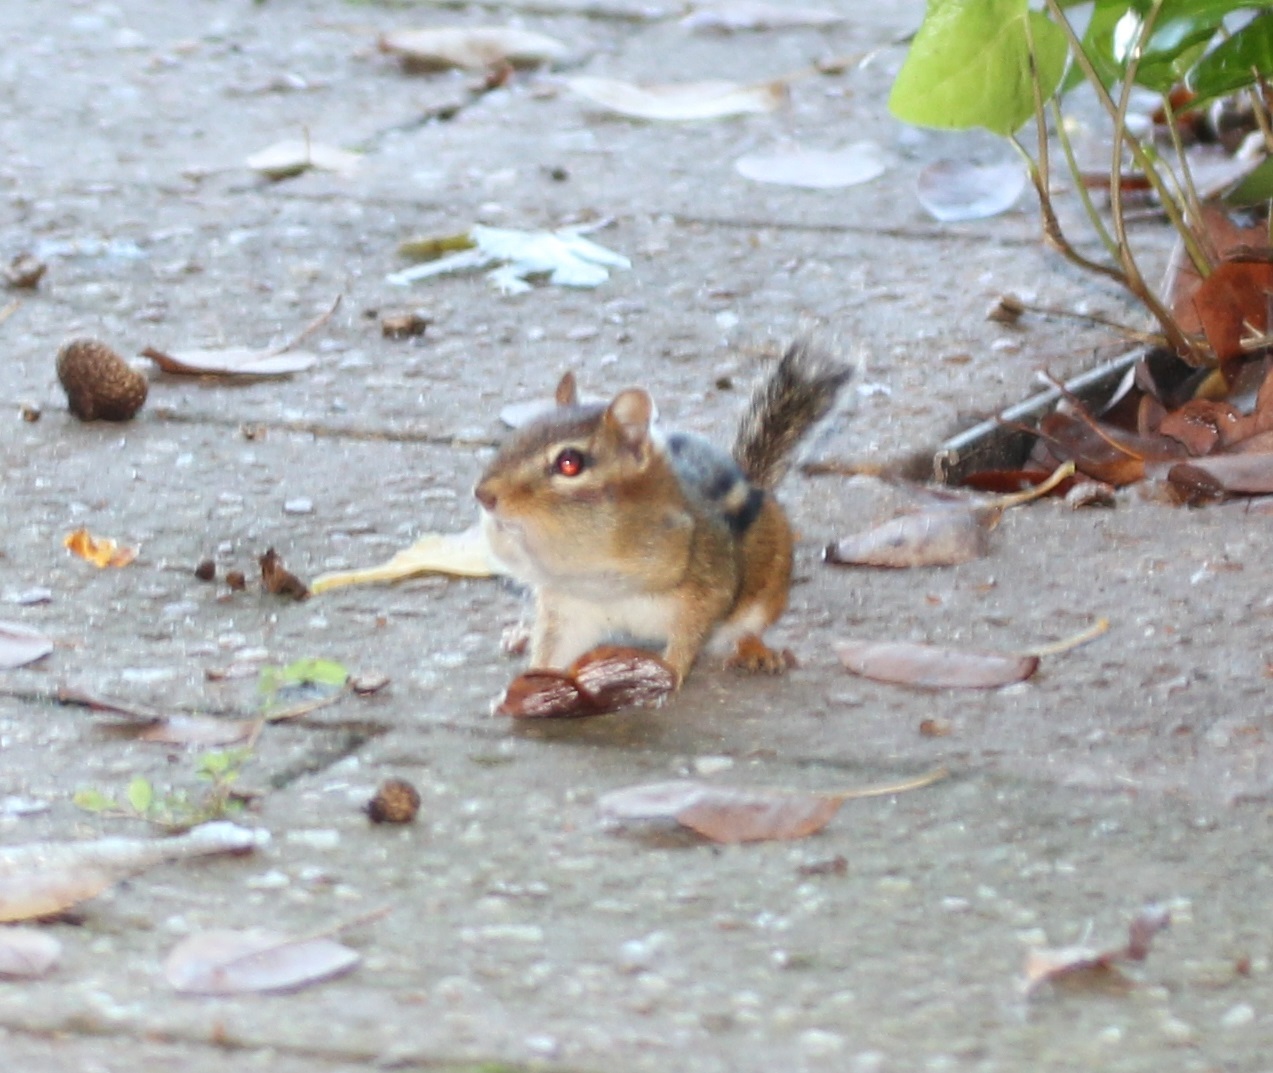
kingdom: Animalia
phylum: Chordata
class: Mammalia
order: Rodentia
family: Sciuridae
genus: Tamias
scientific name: Tamias striatus
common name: Eastern chipmunk
